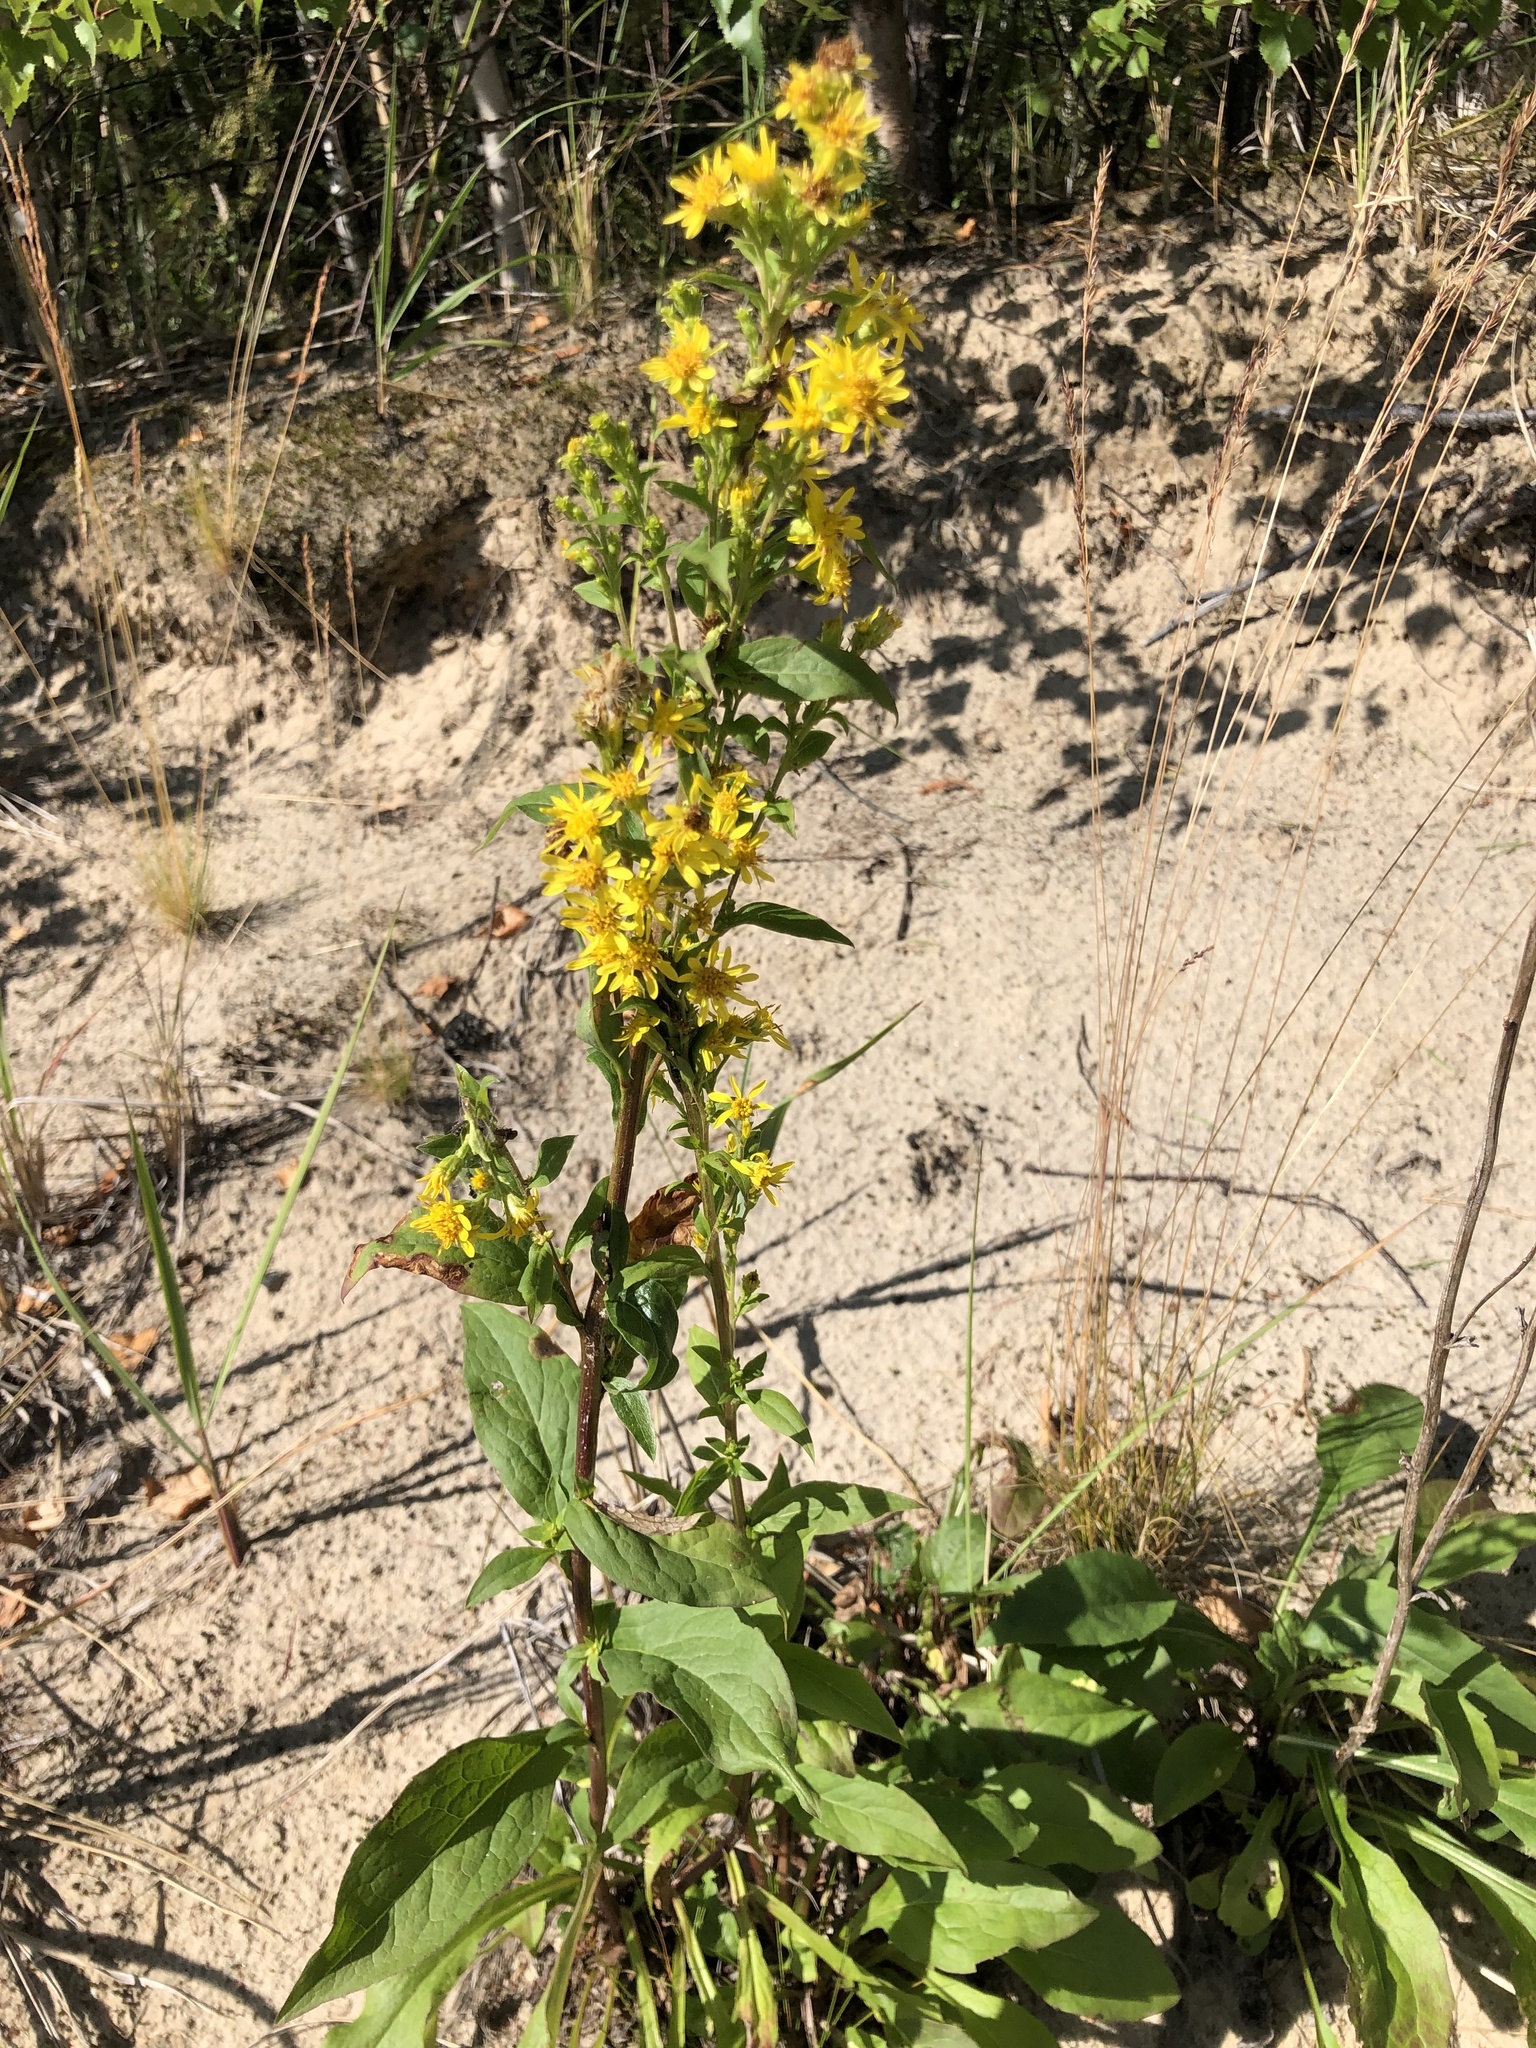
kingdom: Plantae
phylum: Tracheophyta
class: Magnoliopsida
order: Asterales
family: Asteraceae
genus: Solidago
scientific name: Solidago virgaurea
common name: Goldenrod
